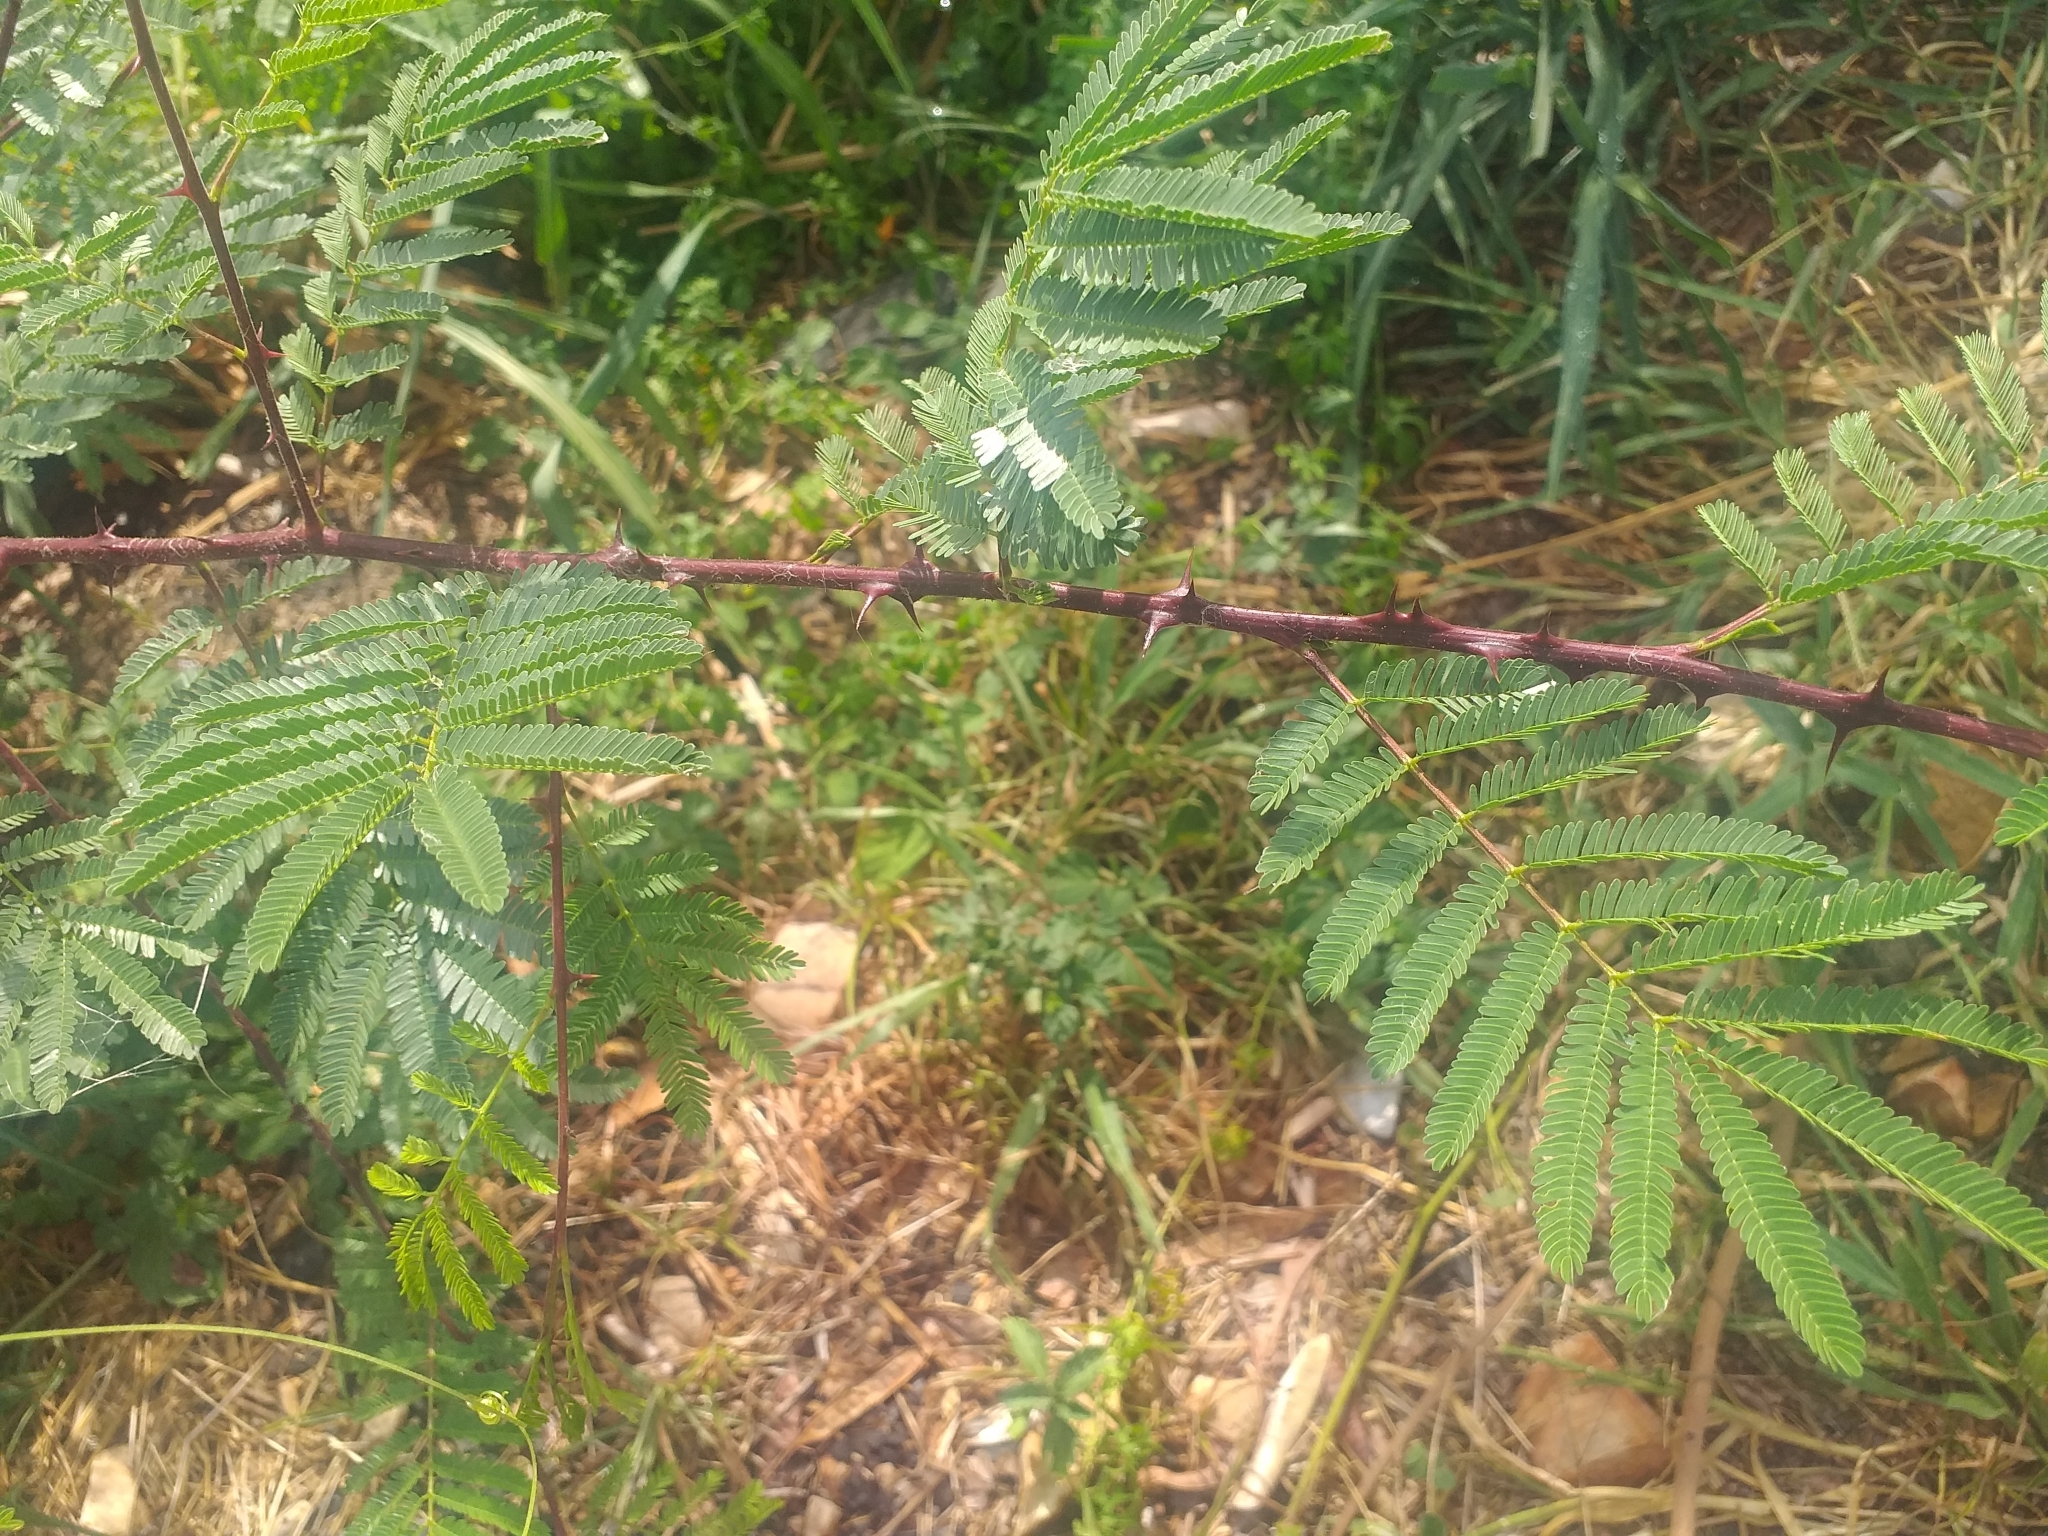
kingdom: Plantae
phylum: Tracheophyta
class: Magnoliopsida
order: Fabales
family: Fabaceae
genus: Mimosa
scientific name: Mimosa tenuiflora
